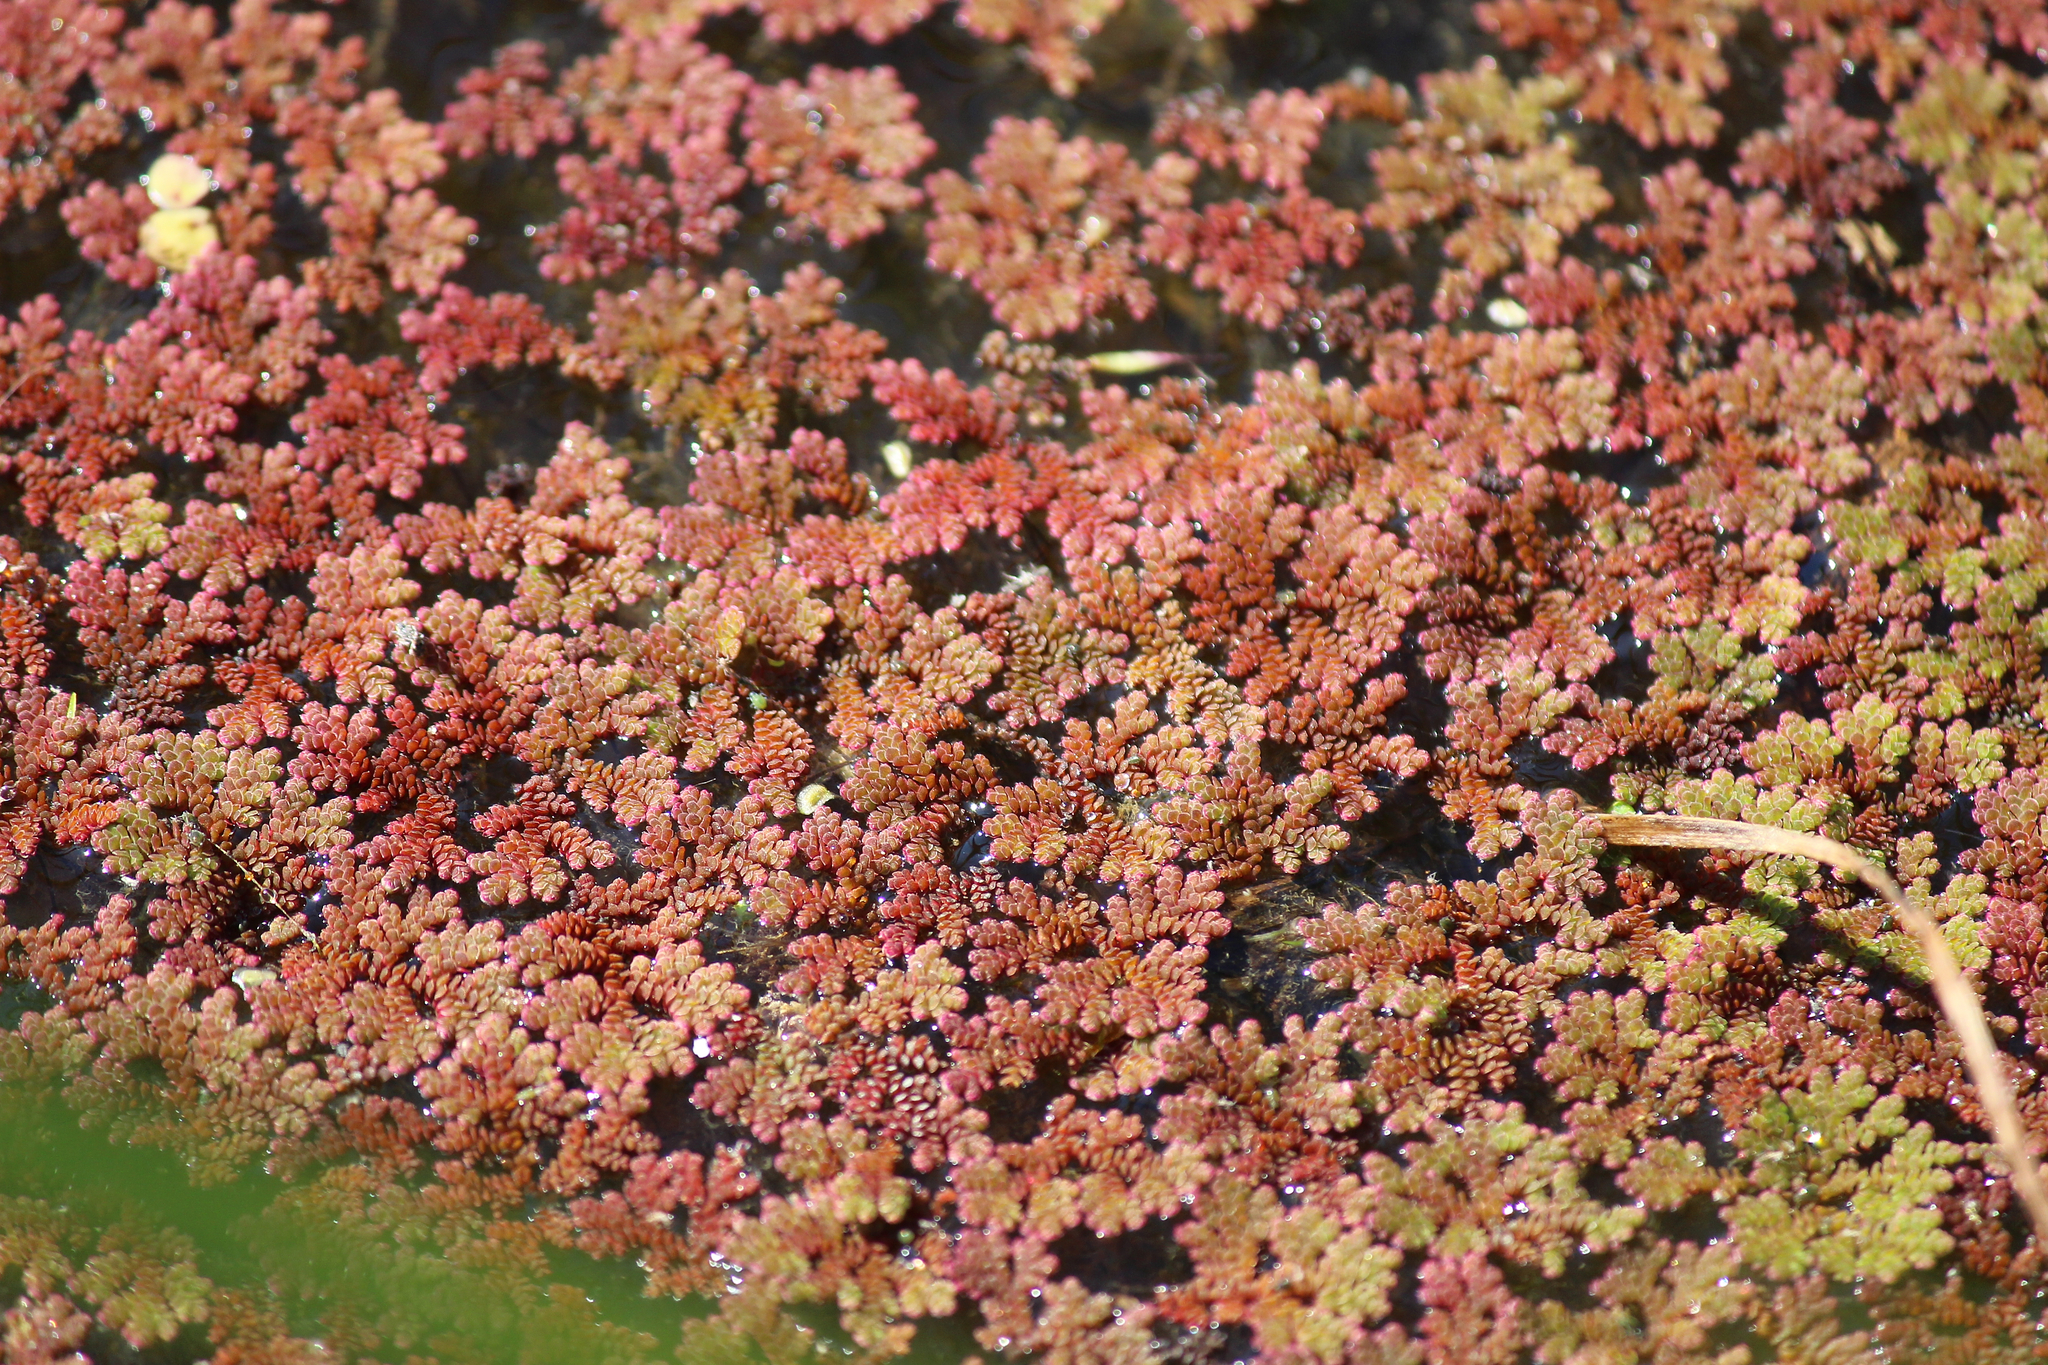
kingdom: Plantae
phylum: Tracheophyta
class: Polypodiopsida
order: Salviniales
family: Salviniaceae
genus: Azolla
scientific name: Azolla filiculoides
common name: Water fern
